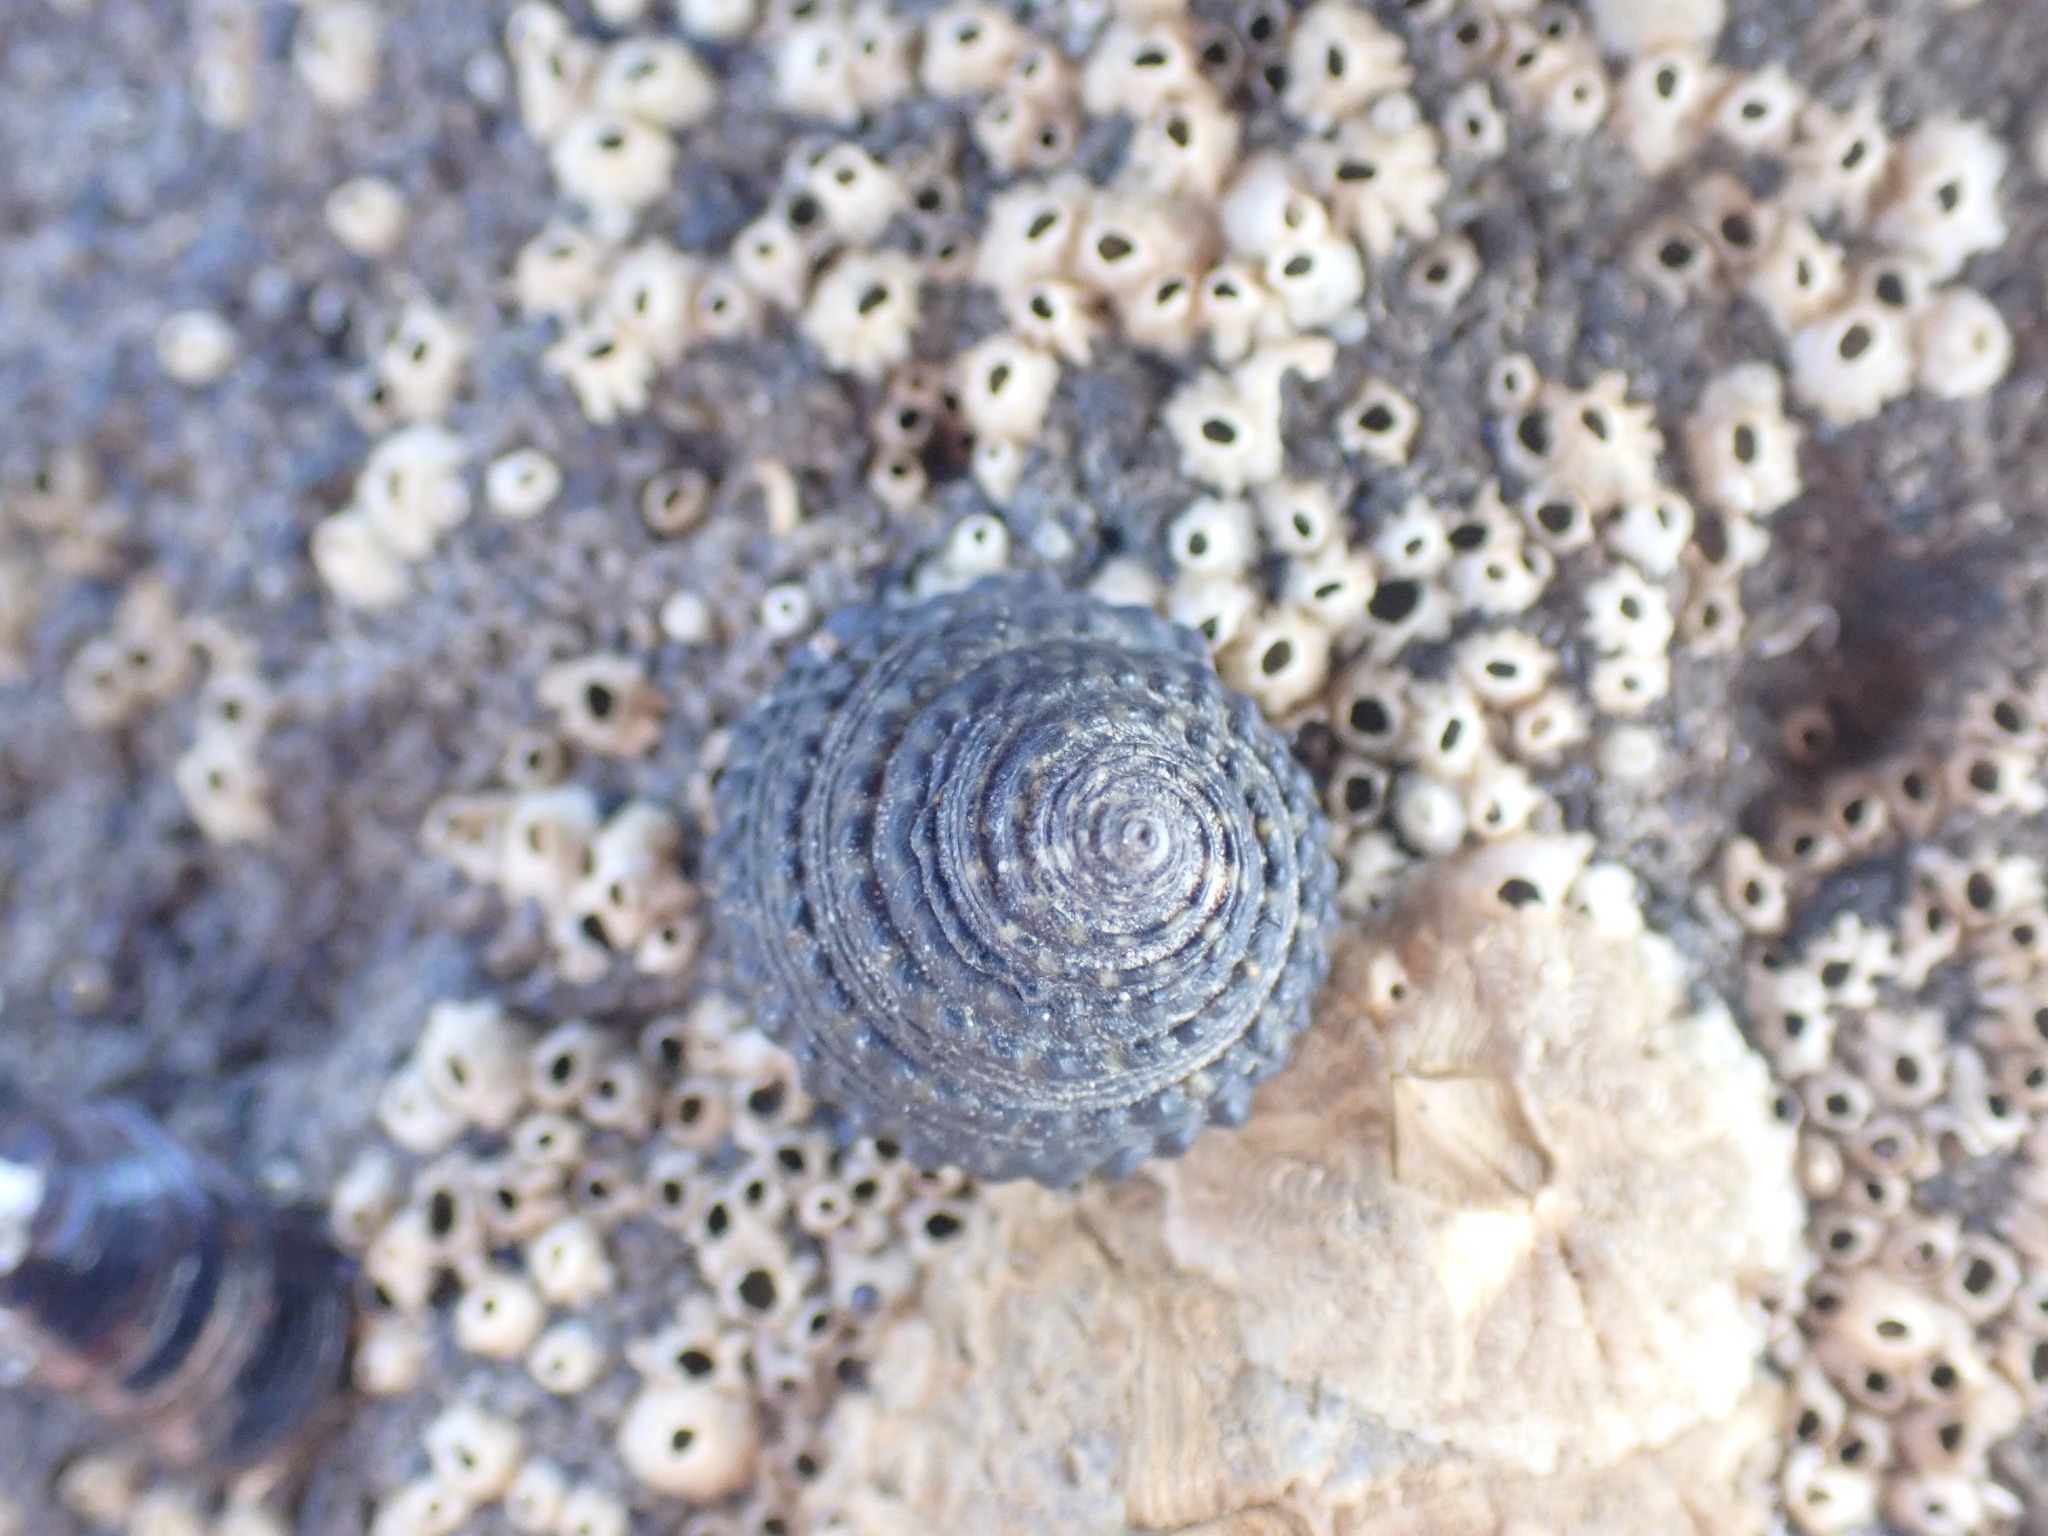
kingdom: Animalia
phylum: Mollusca
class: Gastropoda
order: Trochida
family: Trochidae
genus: Diloma
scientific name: Diloma bicanaliculatum
